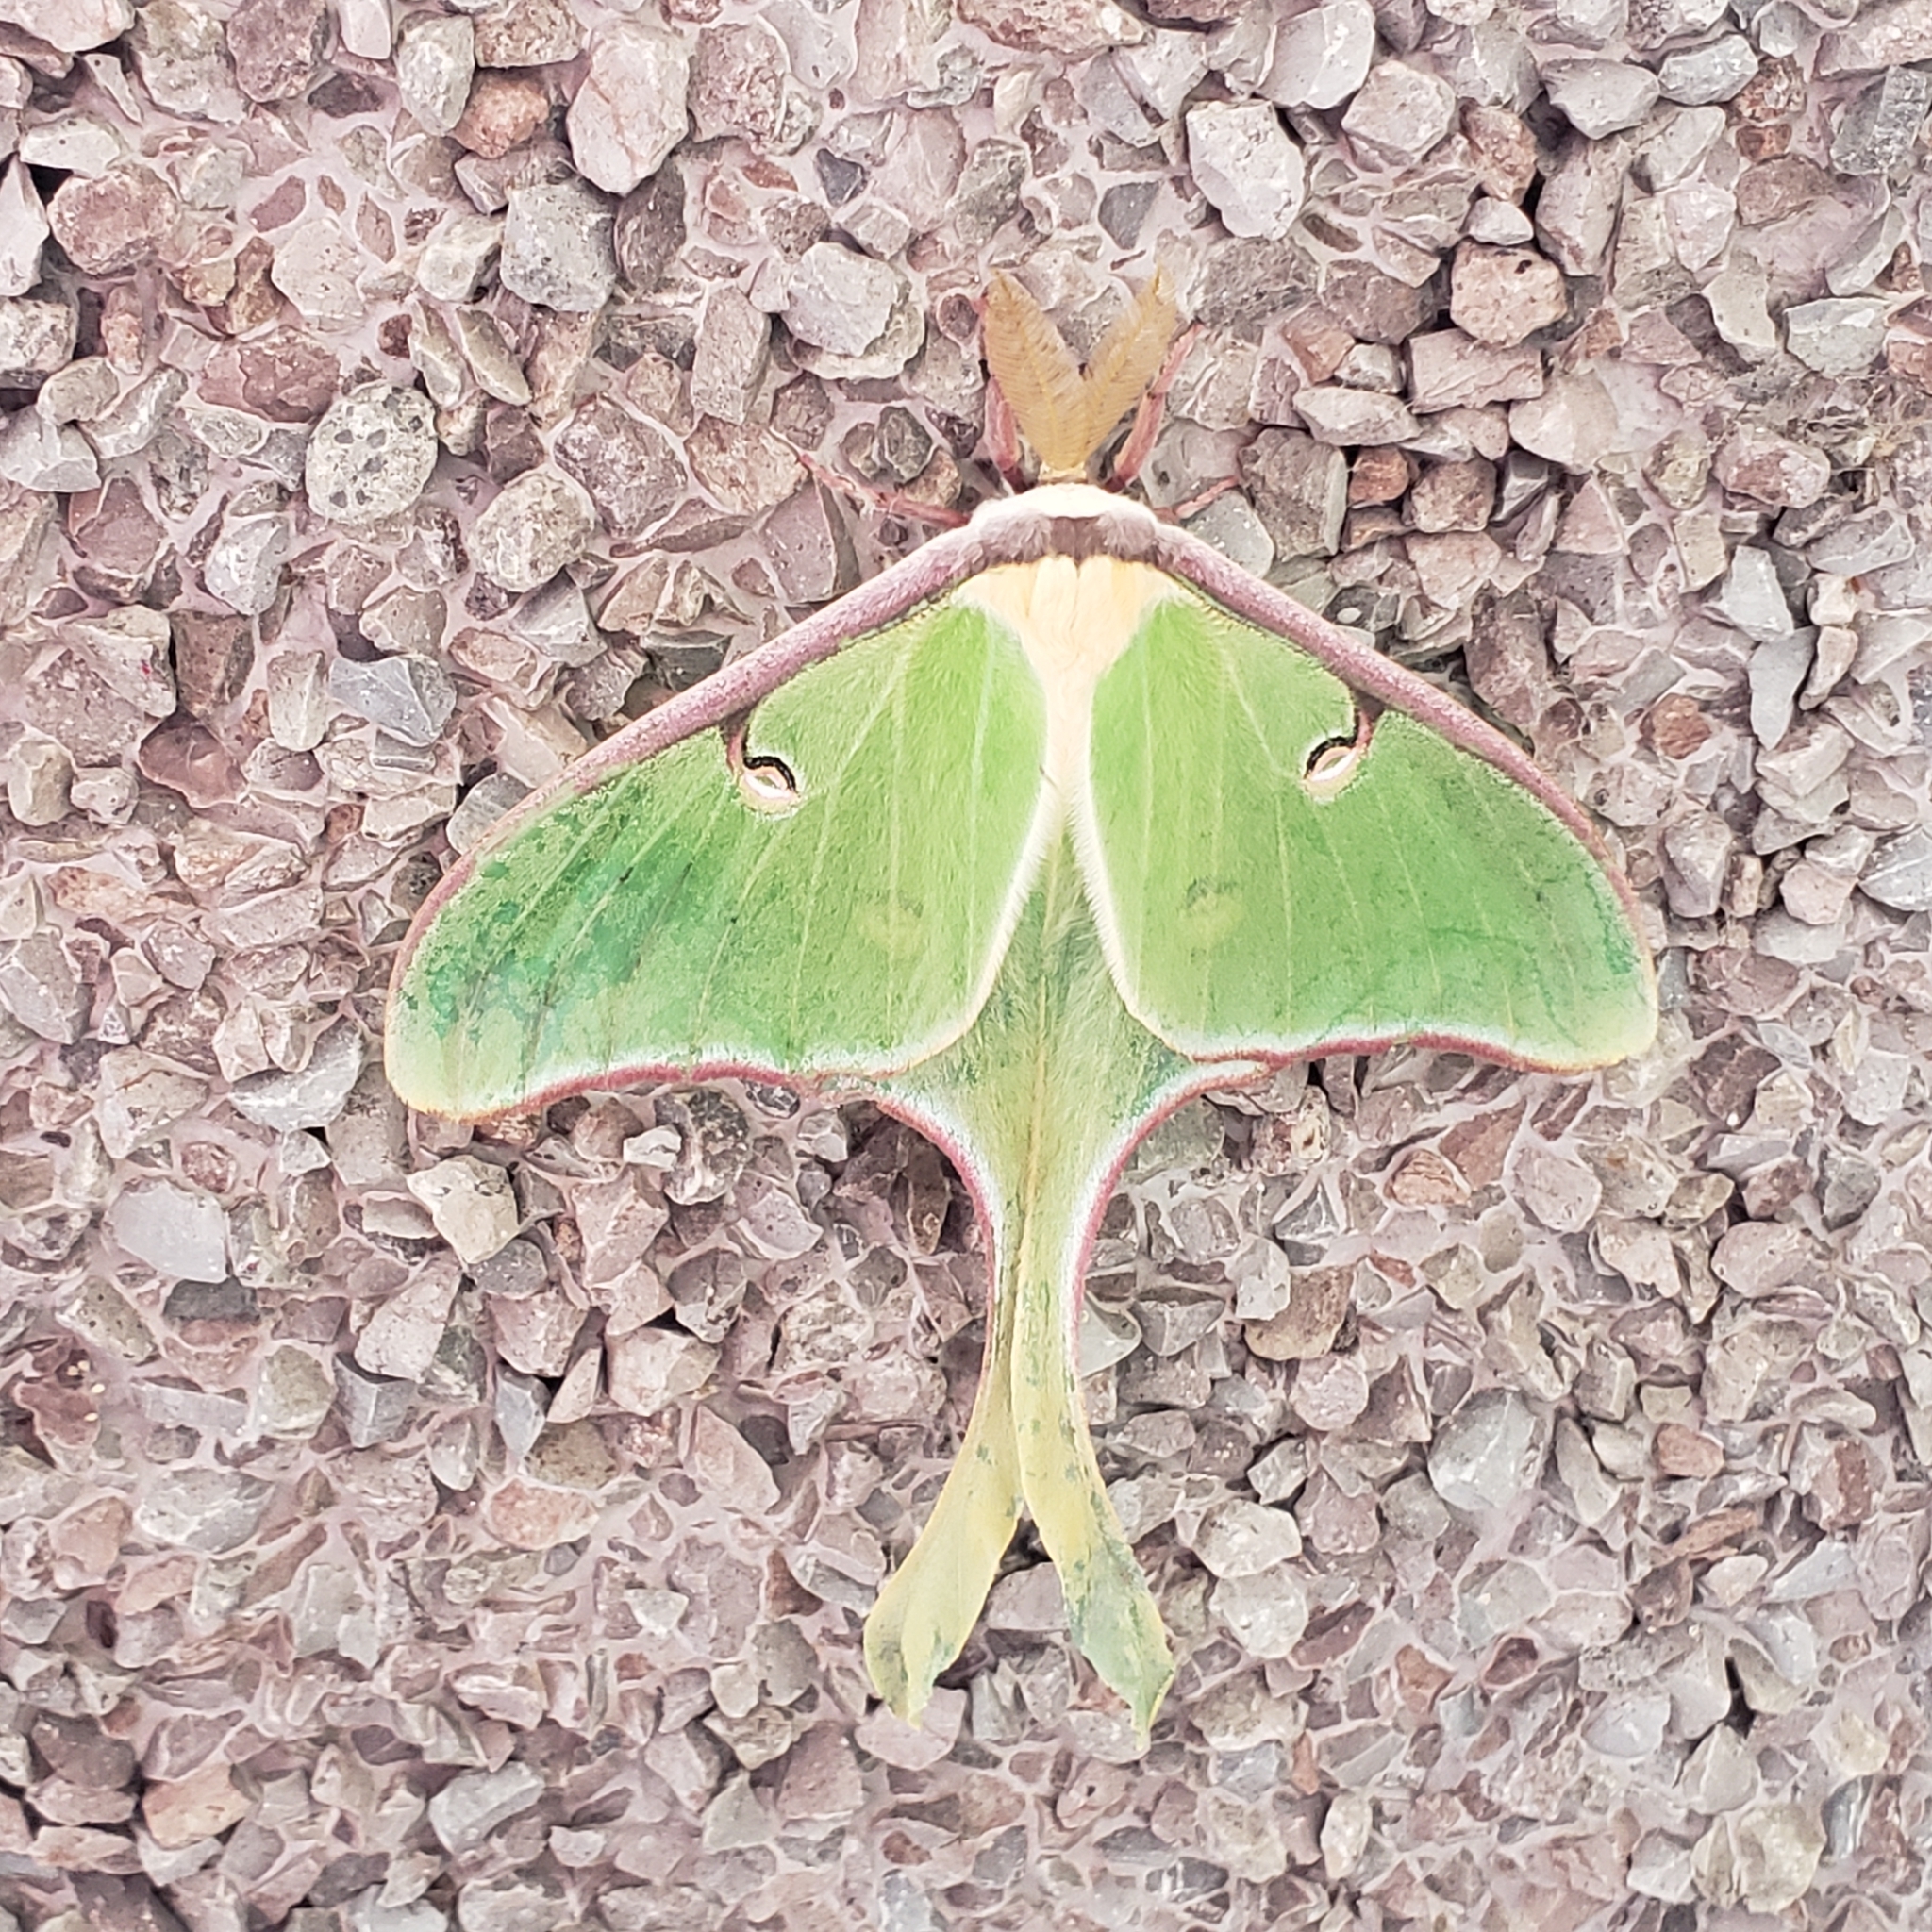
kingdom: Animalia
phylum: Arthropoda
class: Insecta
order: Lepidoptera
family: Saturniidae
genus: Actias
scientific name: Actias luna
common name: Luna moth
